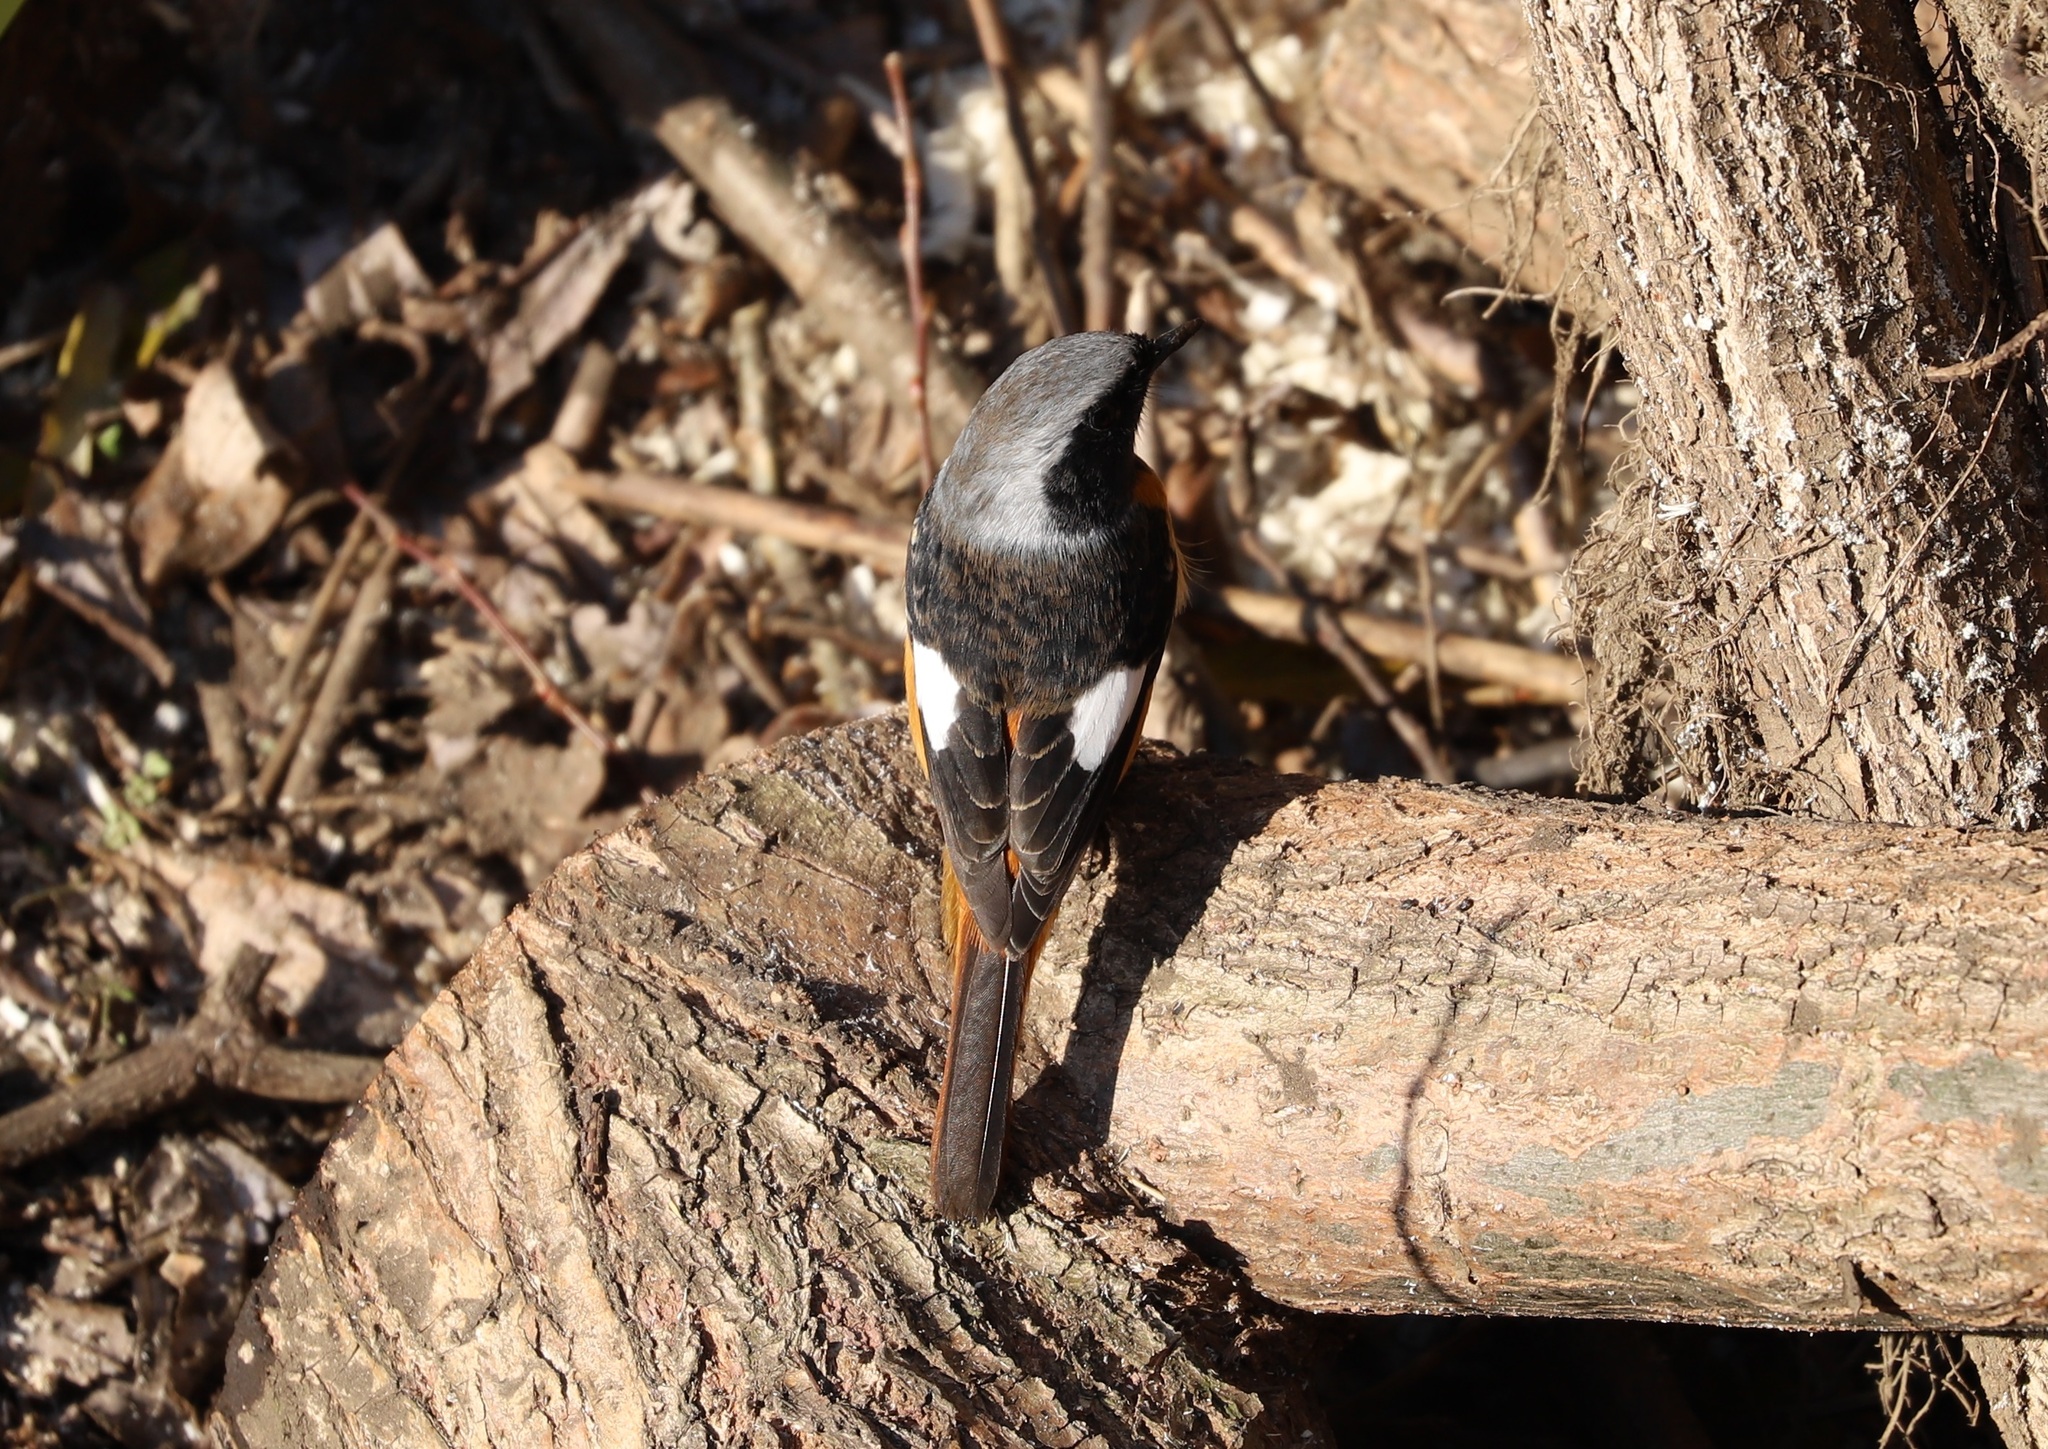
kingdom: Animalia
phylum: Chordata
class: Aves
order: Passeriformes
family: Muscicapidae
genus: Phoenicurus
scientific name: Phoenicurus auroreus
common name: Daurian redstart
